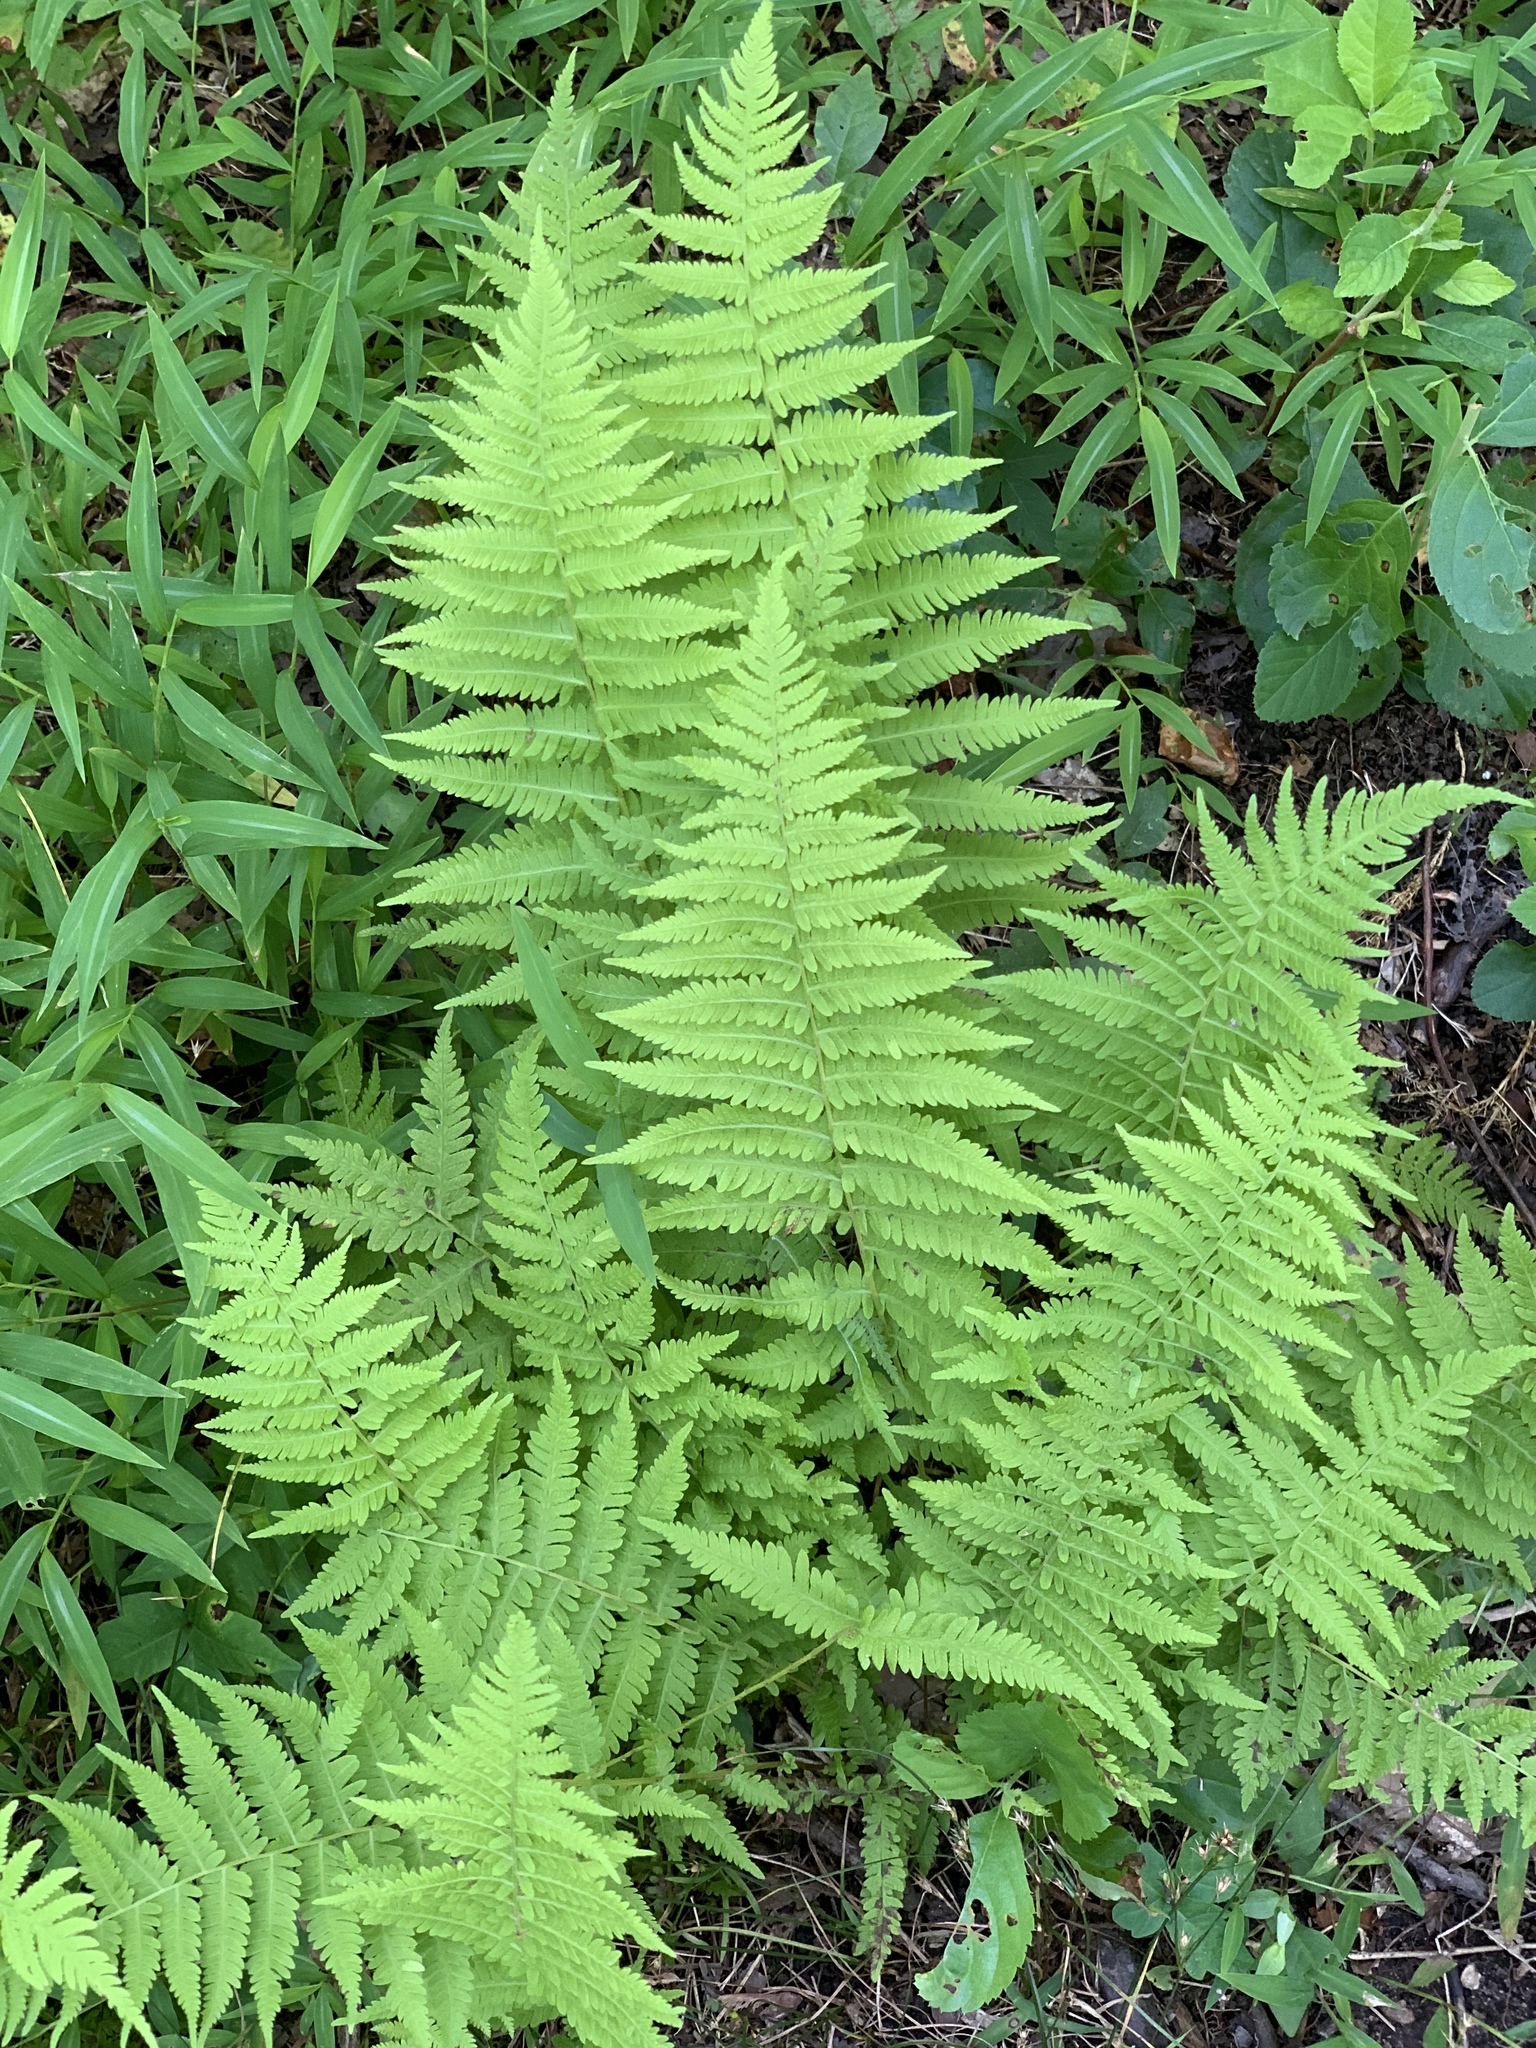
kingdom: Plantae
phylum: Tracheophyta
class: Polypodiopsida
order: Polypodiales
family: Thelypteridaceae
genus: Amauropelta
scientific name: Amauropelta noveboracensis
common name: New york fern
